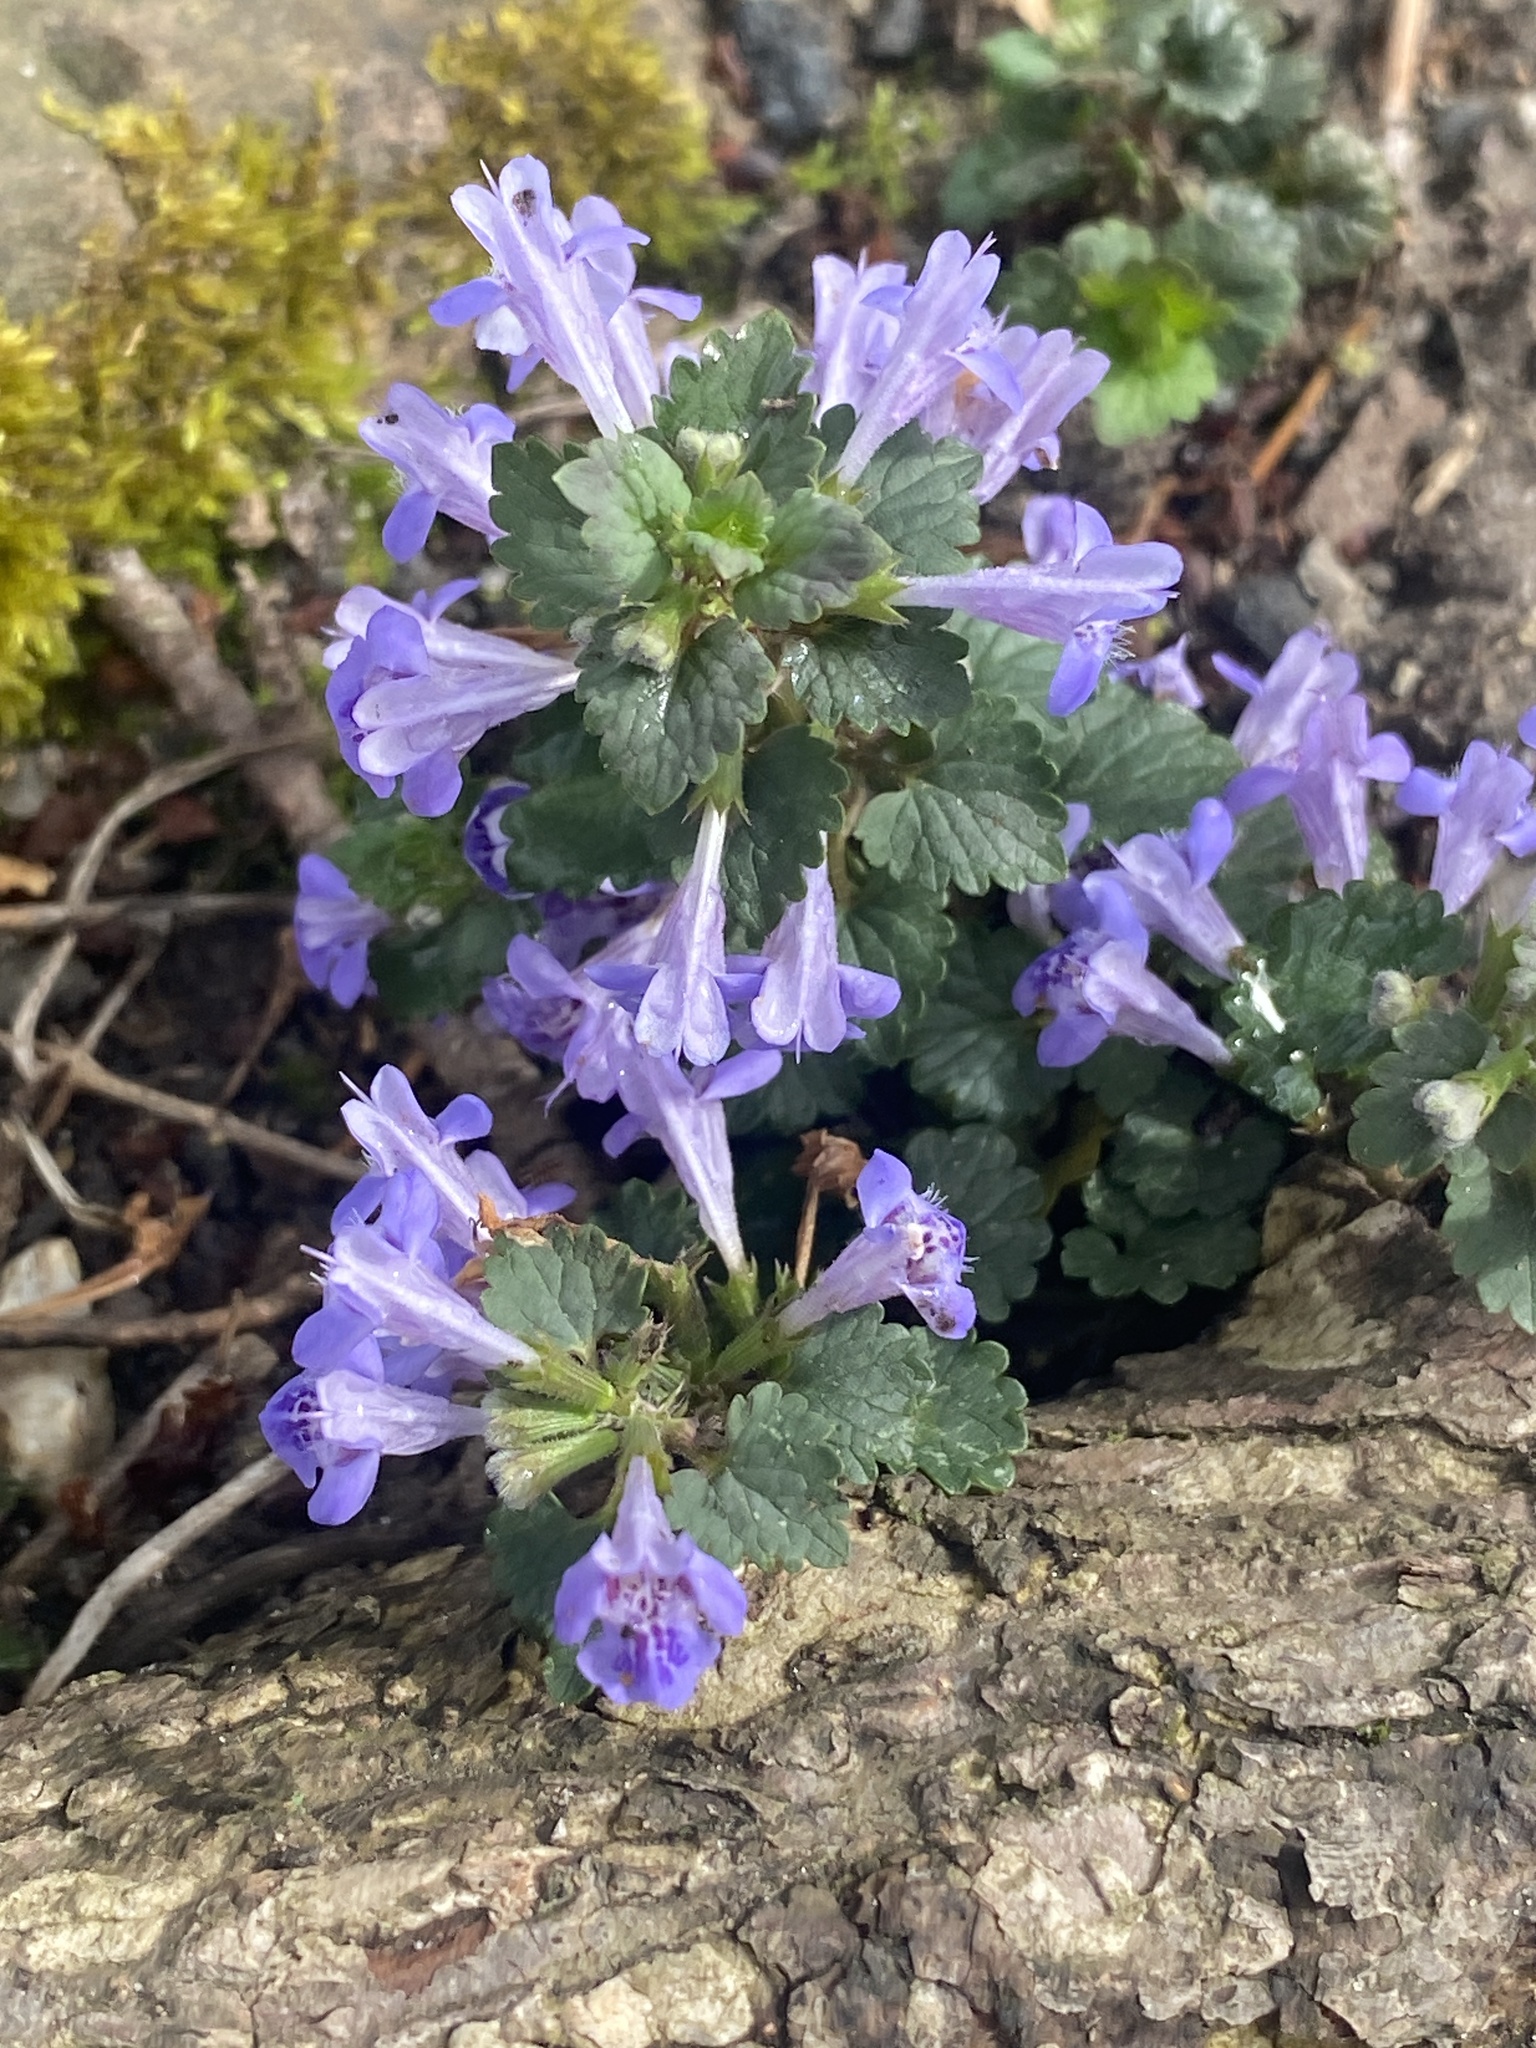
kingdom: Plantae
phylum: Tracheophyta
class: Magnoliopsida
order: Lamiales
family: Lamiaceae
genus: Glechoma
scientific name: Glechoma hederacea
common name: Ground ivy
